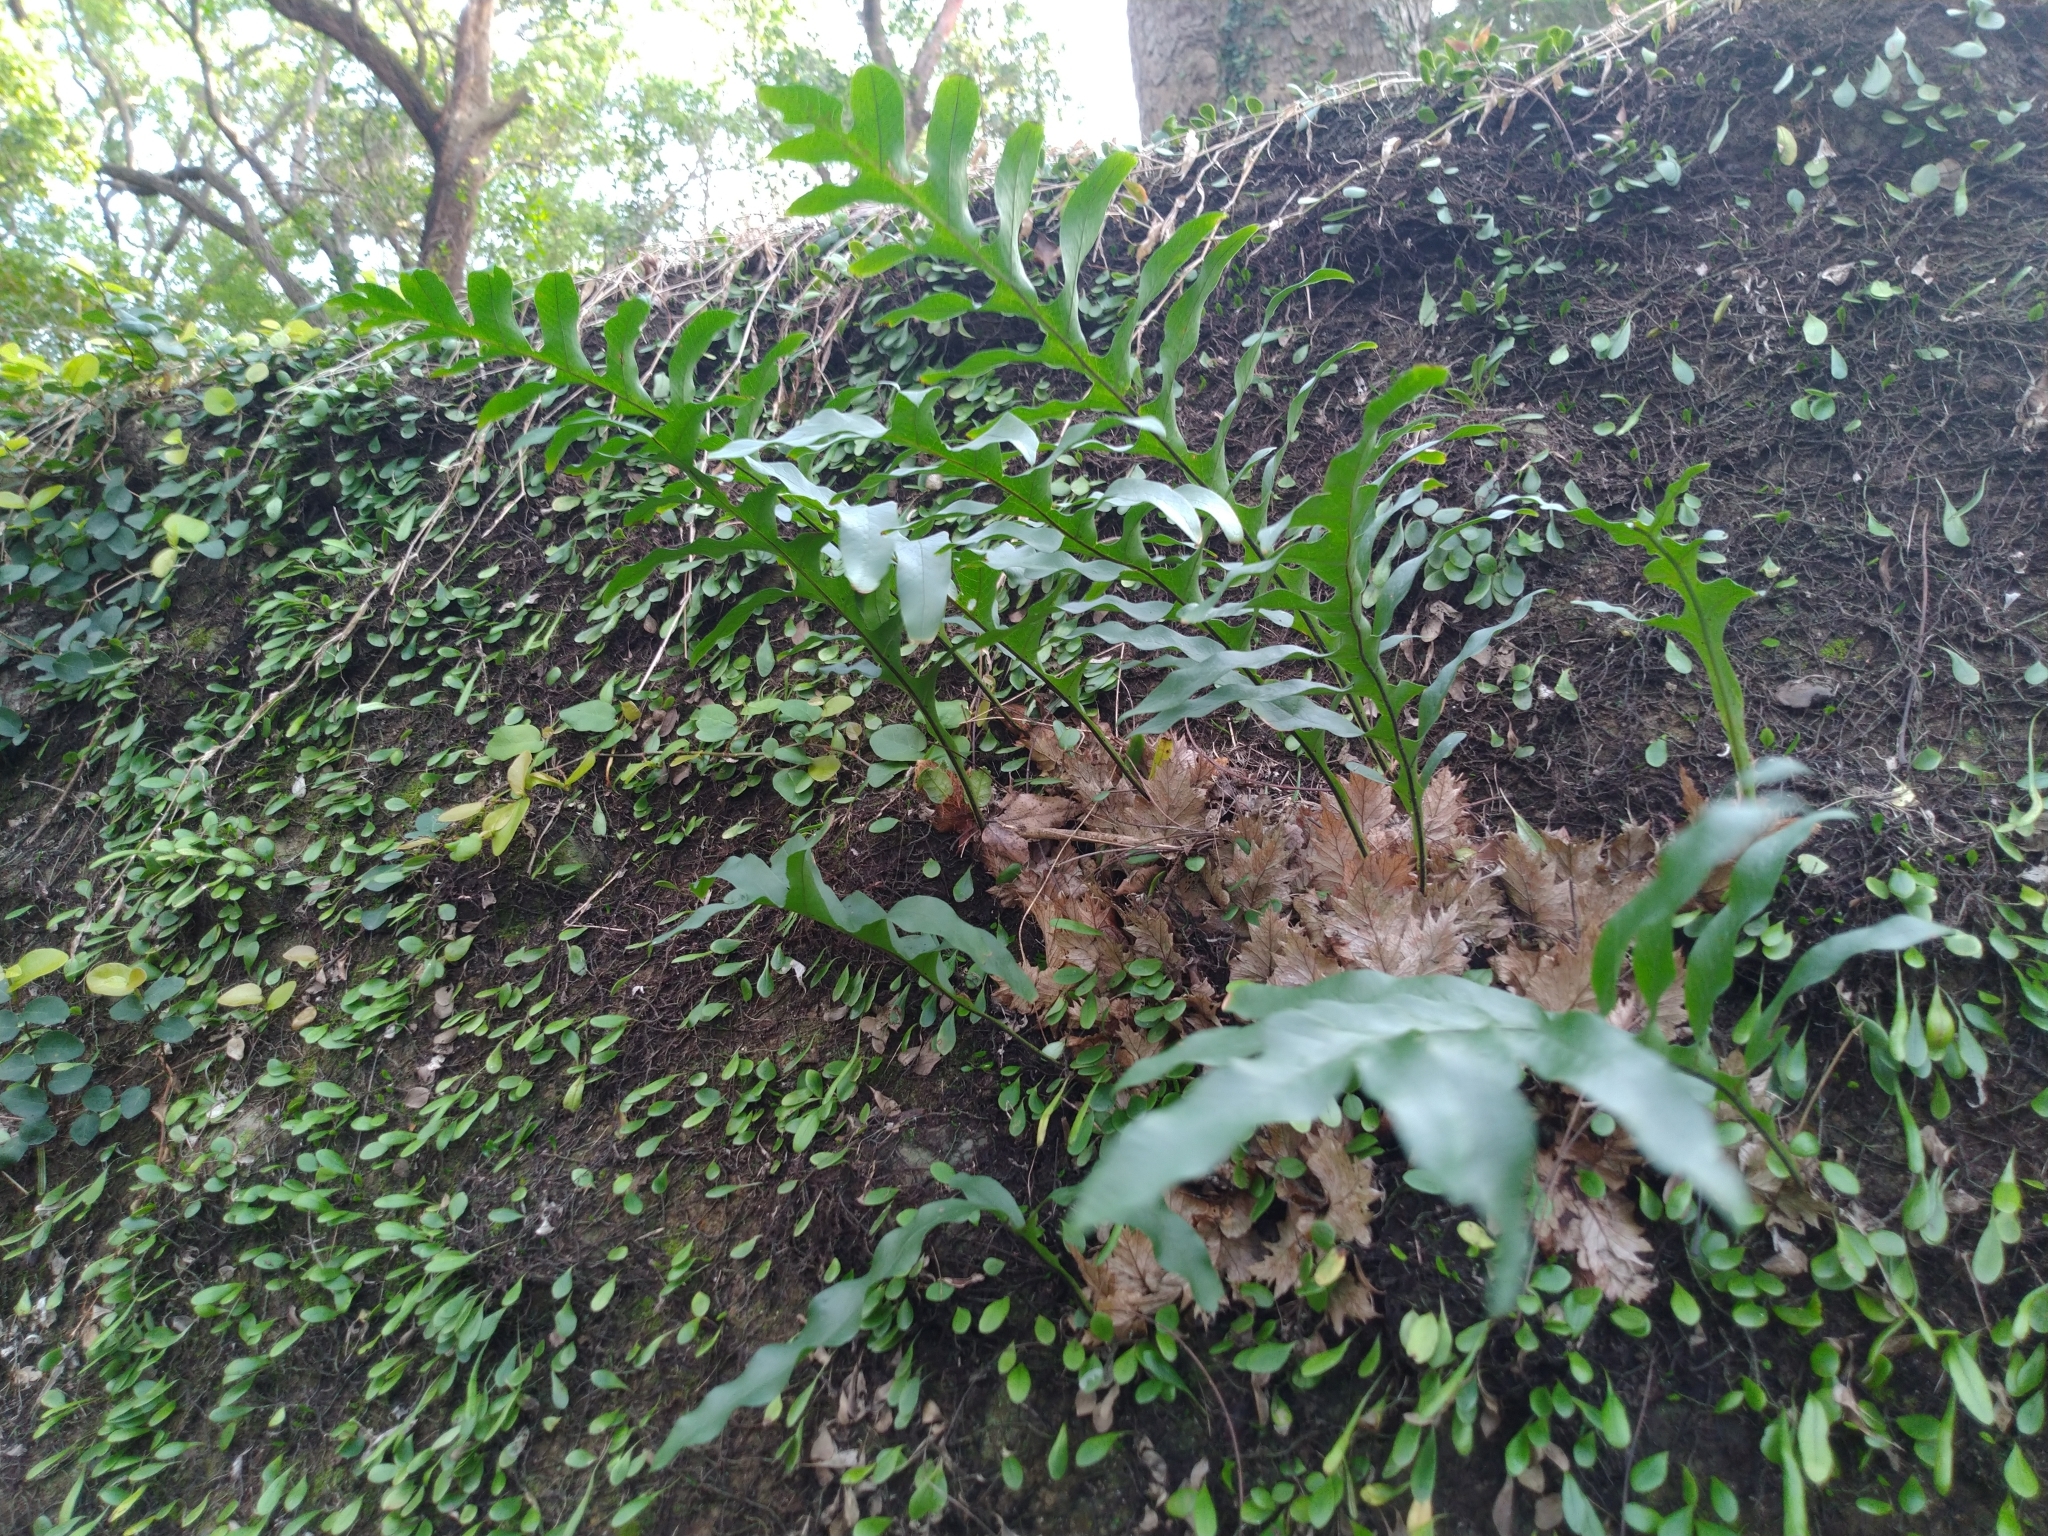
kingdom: Plantae
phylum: Tracheophyta
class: Polypodiopsida
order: Polypodiales
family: Polypodiaceae
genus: Drynaria
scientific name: Drynaria roosii
